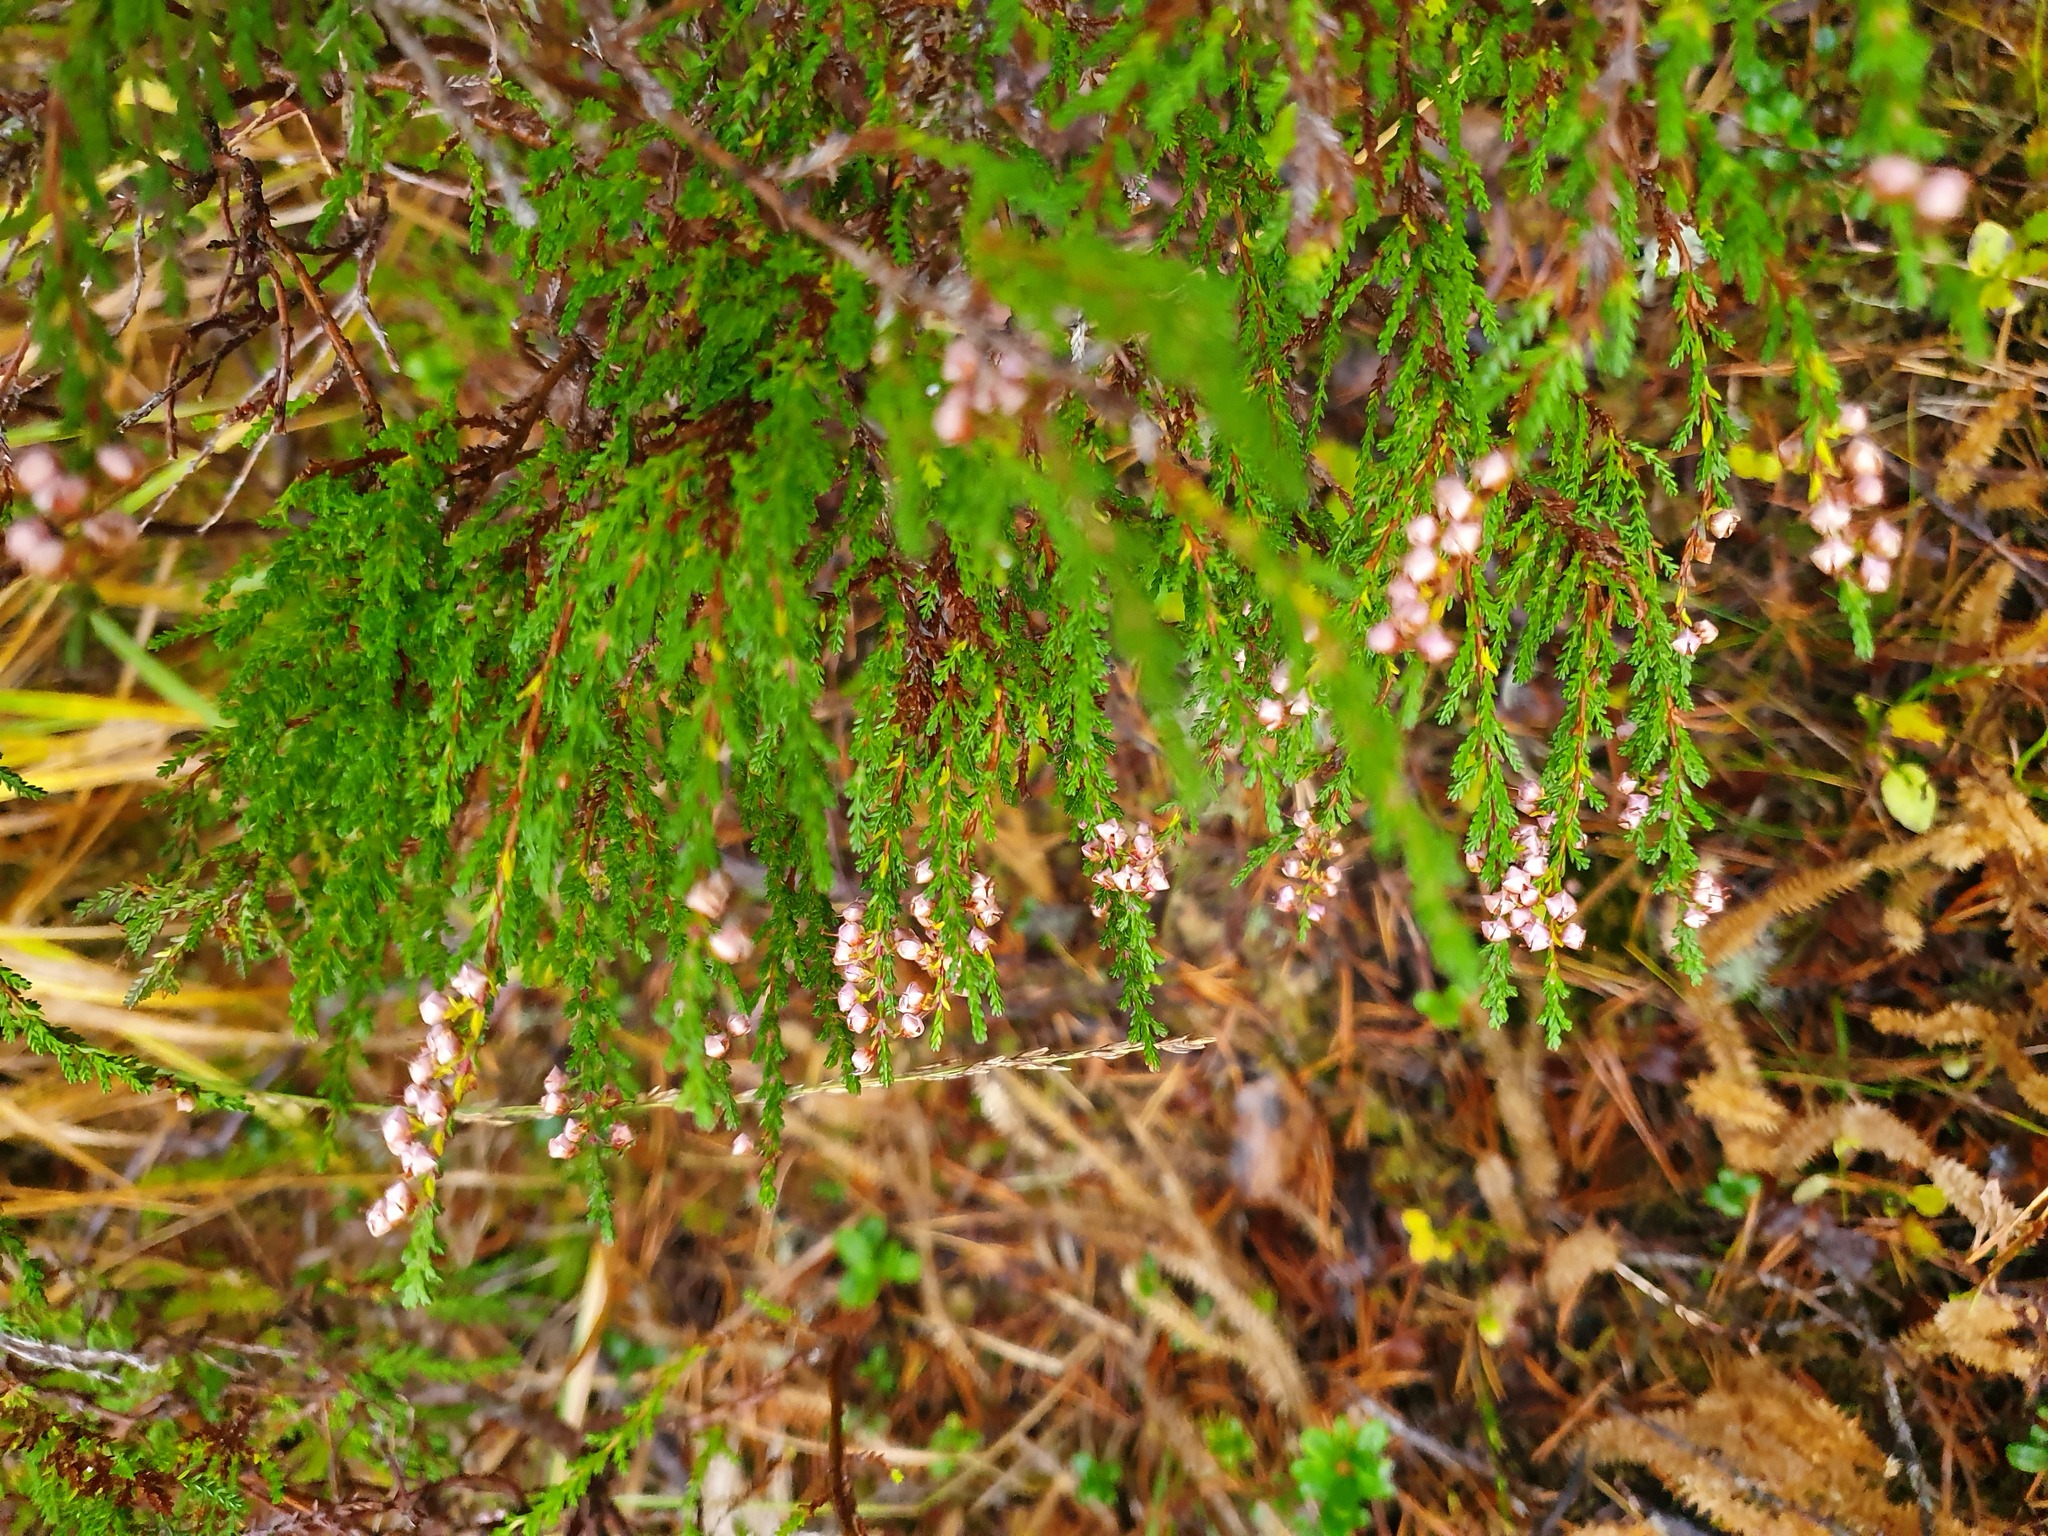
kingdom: Plantae
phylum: Tracheophyta
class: Magnoliopsida
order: Ericales
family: Ericaceae
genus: Calluna
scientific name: Calluna vulgaris
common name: Heather
